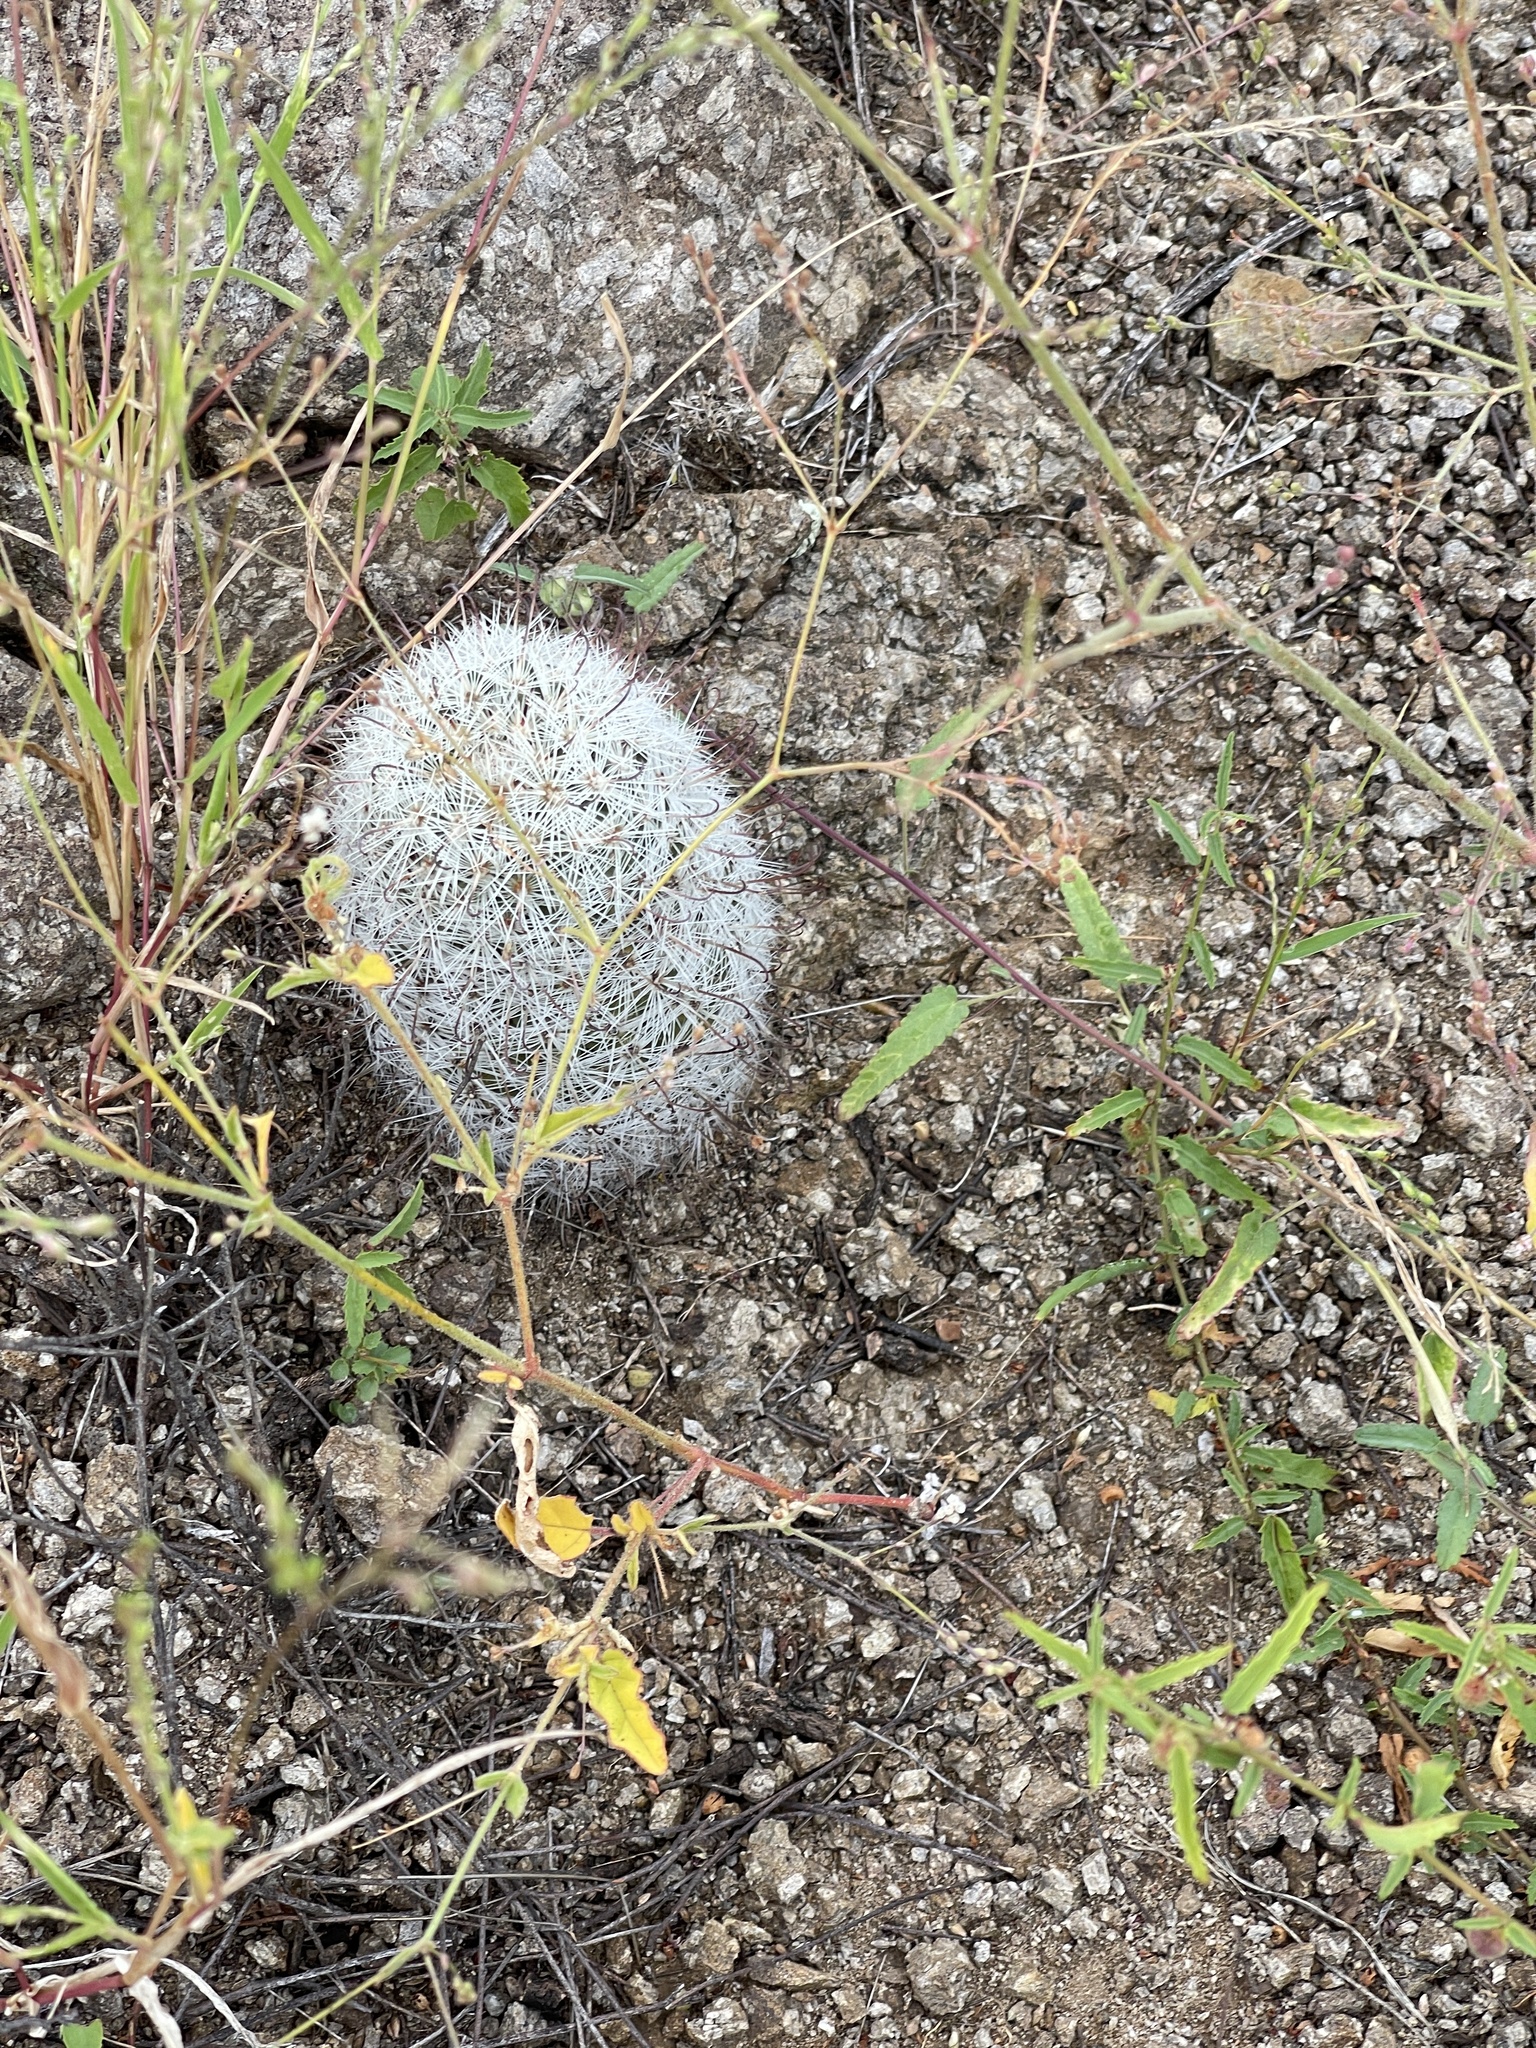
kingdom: Plantae
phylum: Tracheophyta
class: Magnoliopsida
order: Caryophyllales
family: Cactaceae
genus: Cochemiea
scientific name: Cochemiea grahamii
